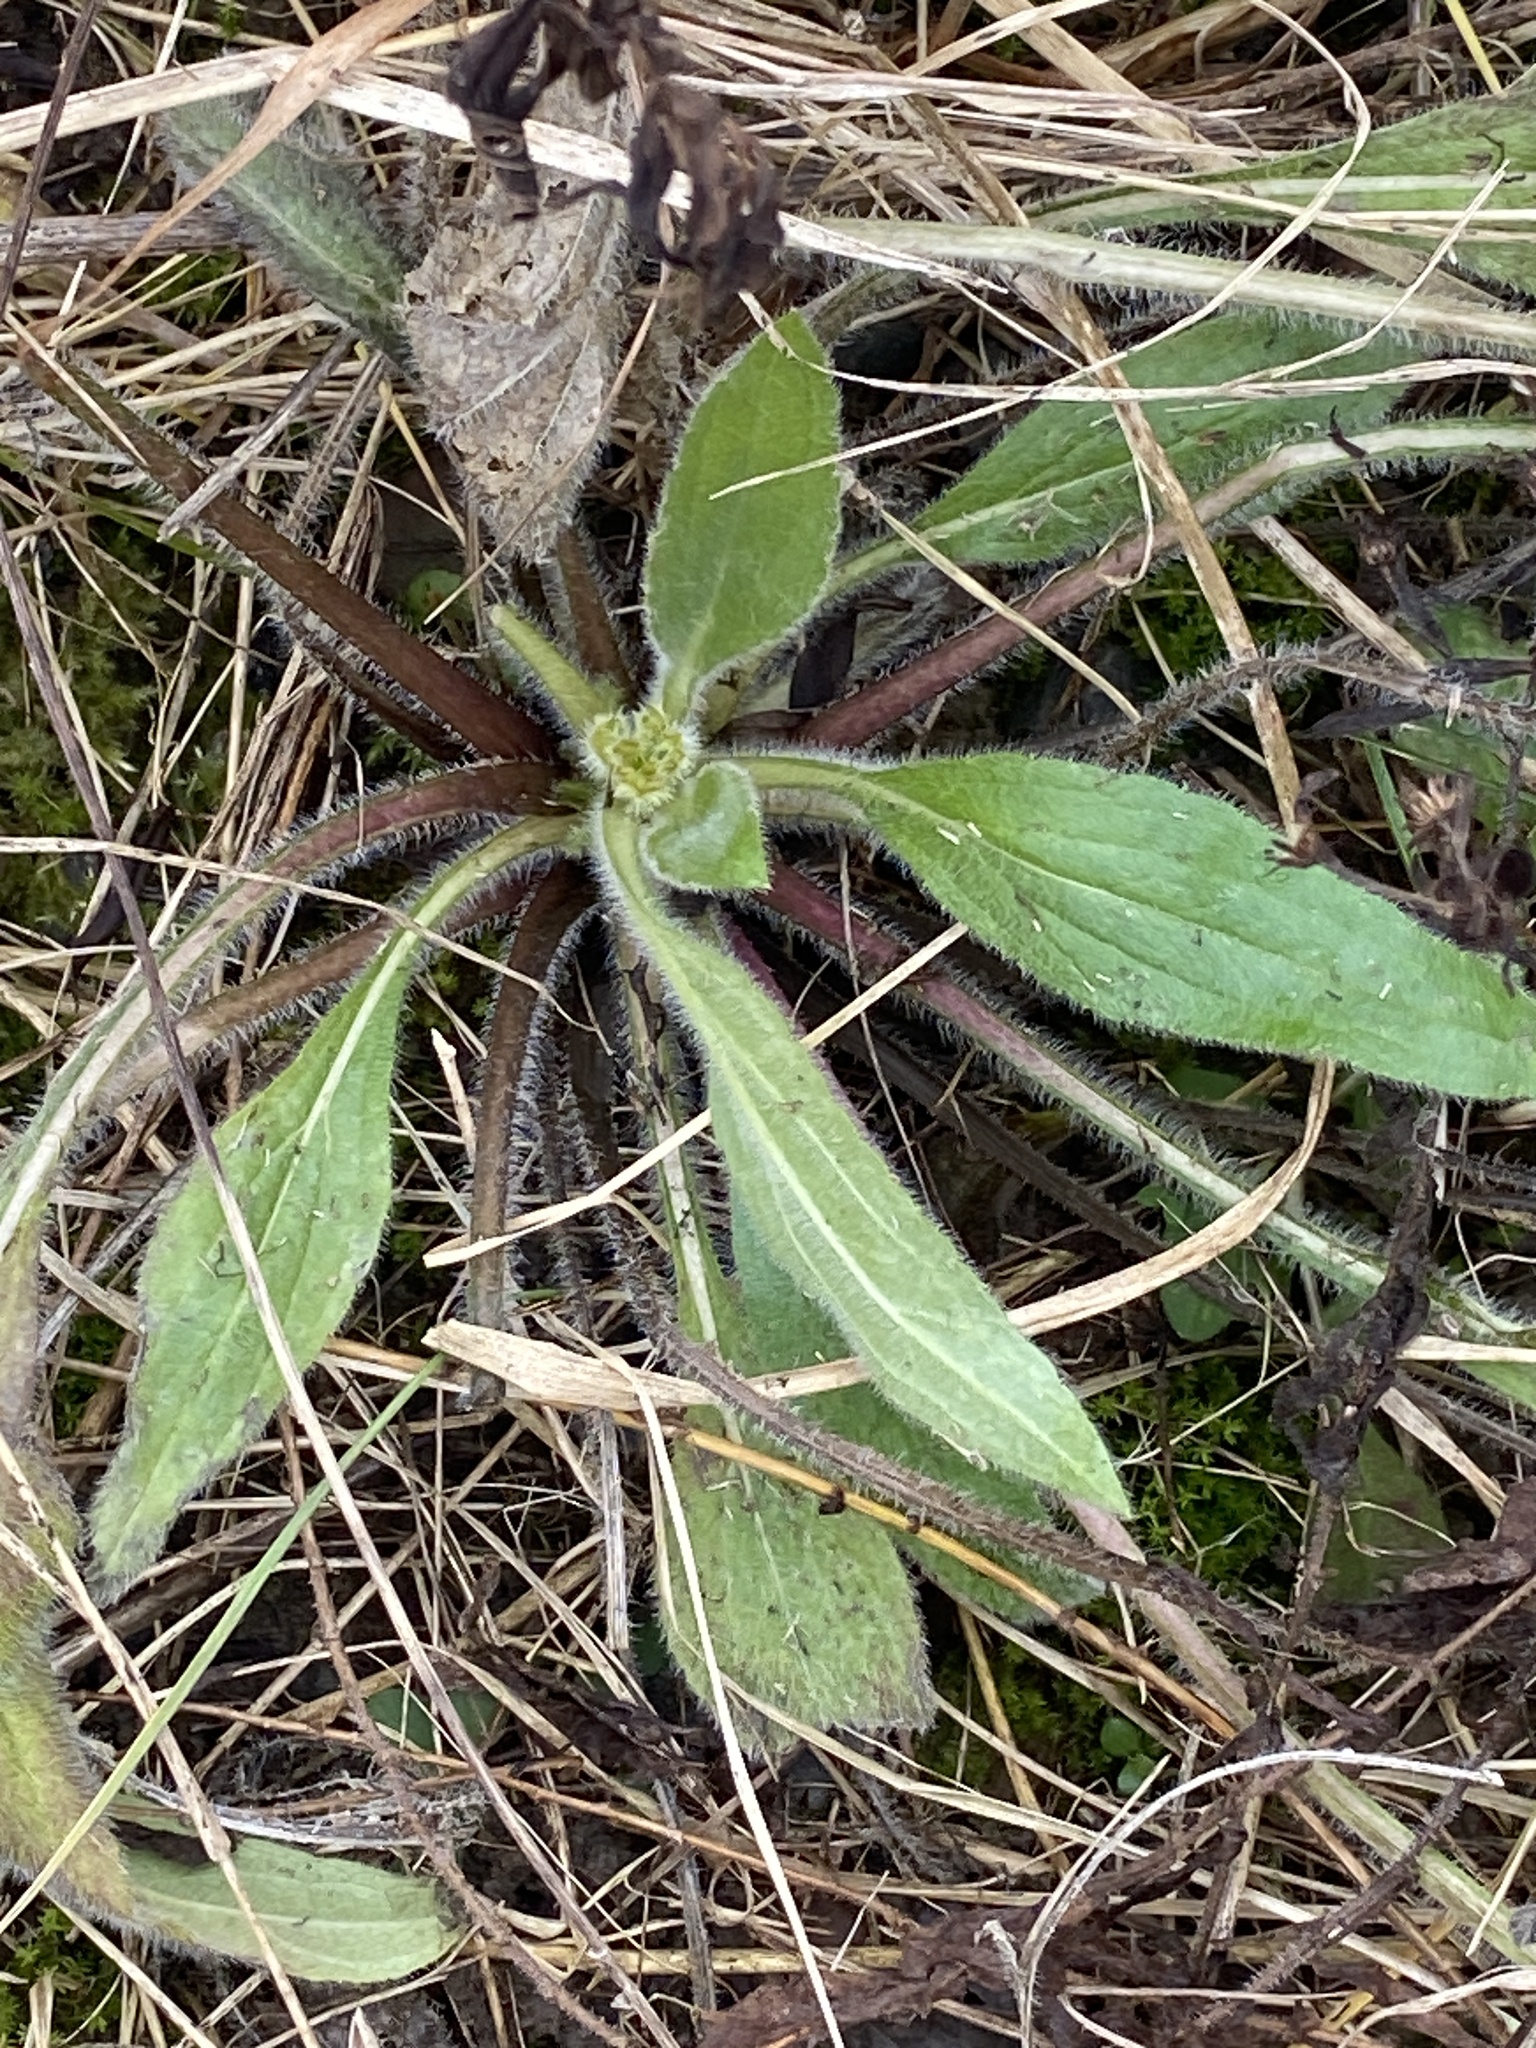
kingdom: Plantae
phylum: Tracheophyta
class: Magnoliopsida
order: Asterales
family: Asteraceae
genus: Rudbeckia
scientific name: Rudbeckia hirta
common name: Black-eyed-susan
